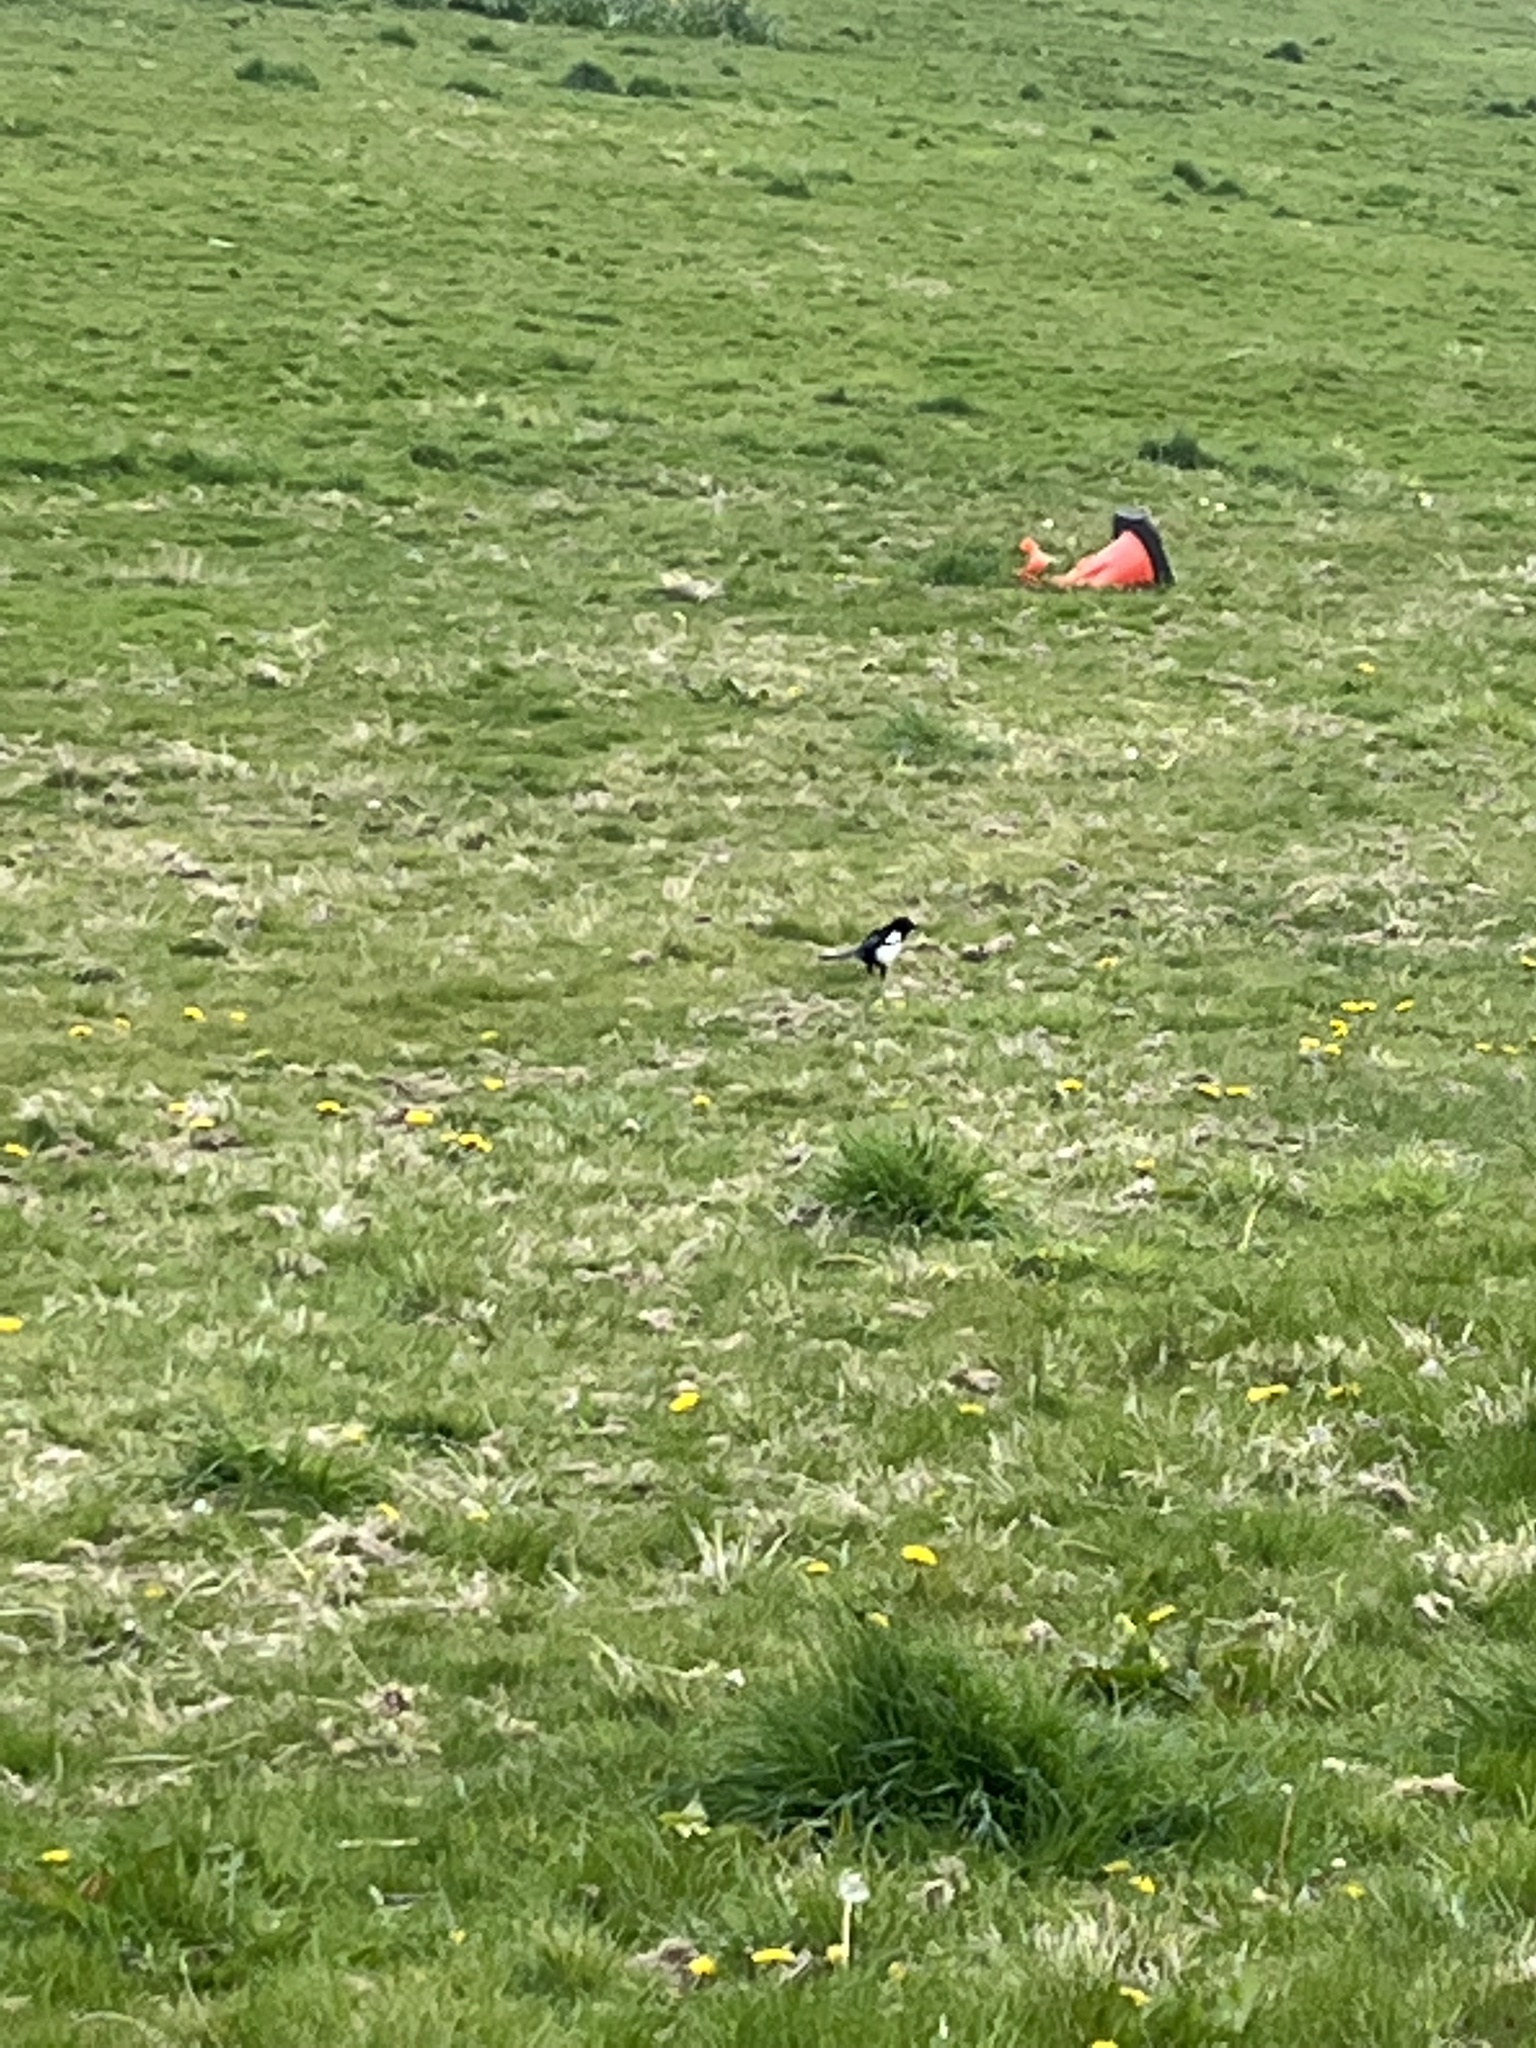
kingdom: Animalia
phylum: Chordata
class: Aves
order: Passeriformes
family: Corvidae
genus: Pica
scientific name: Pica pica
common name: Eurasian magpie
